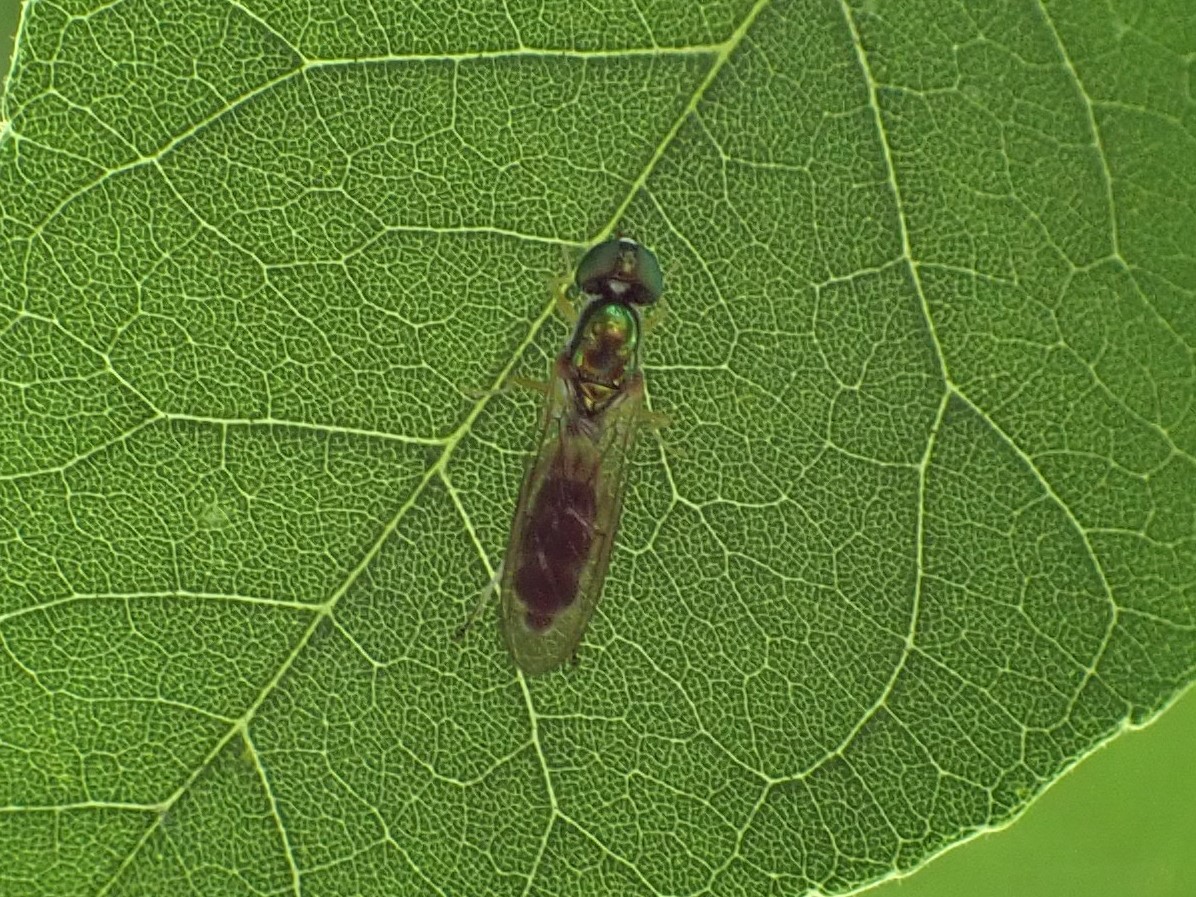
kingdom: Animalia
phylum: Arthropoda
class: Insecta
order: Diptera
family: Stratiomyidae
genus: Sargus
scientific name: Sargus fasciatus
